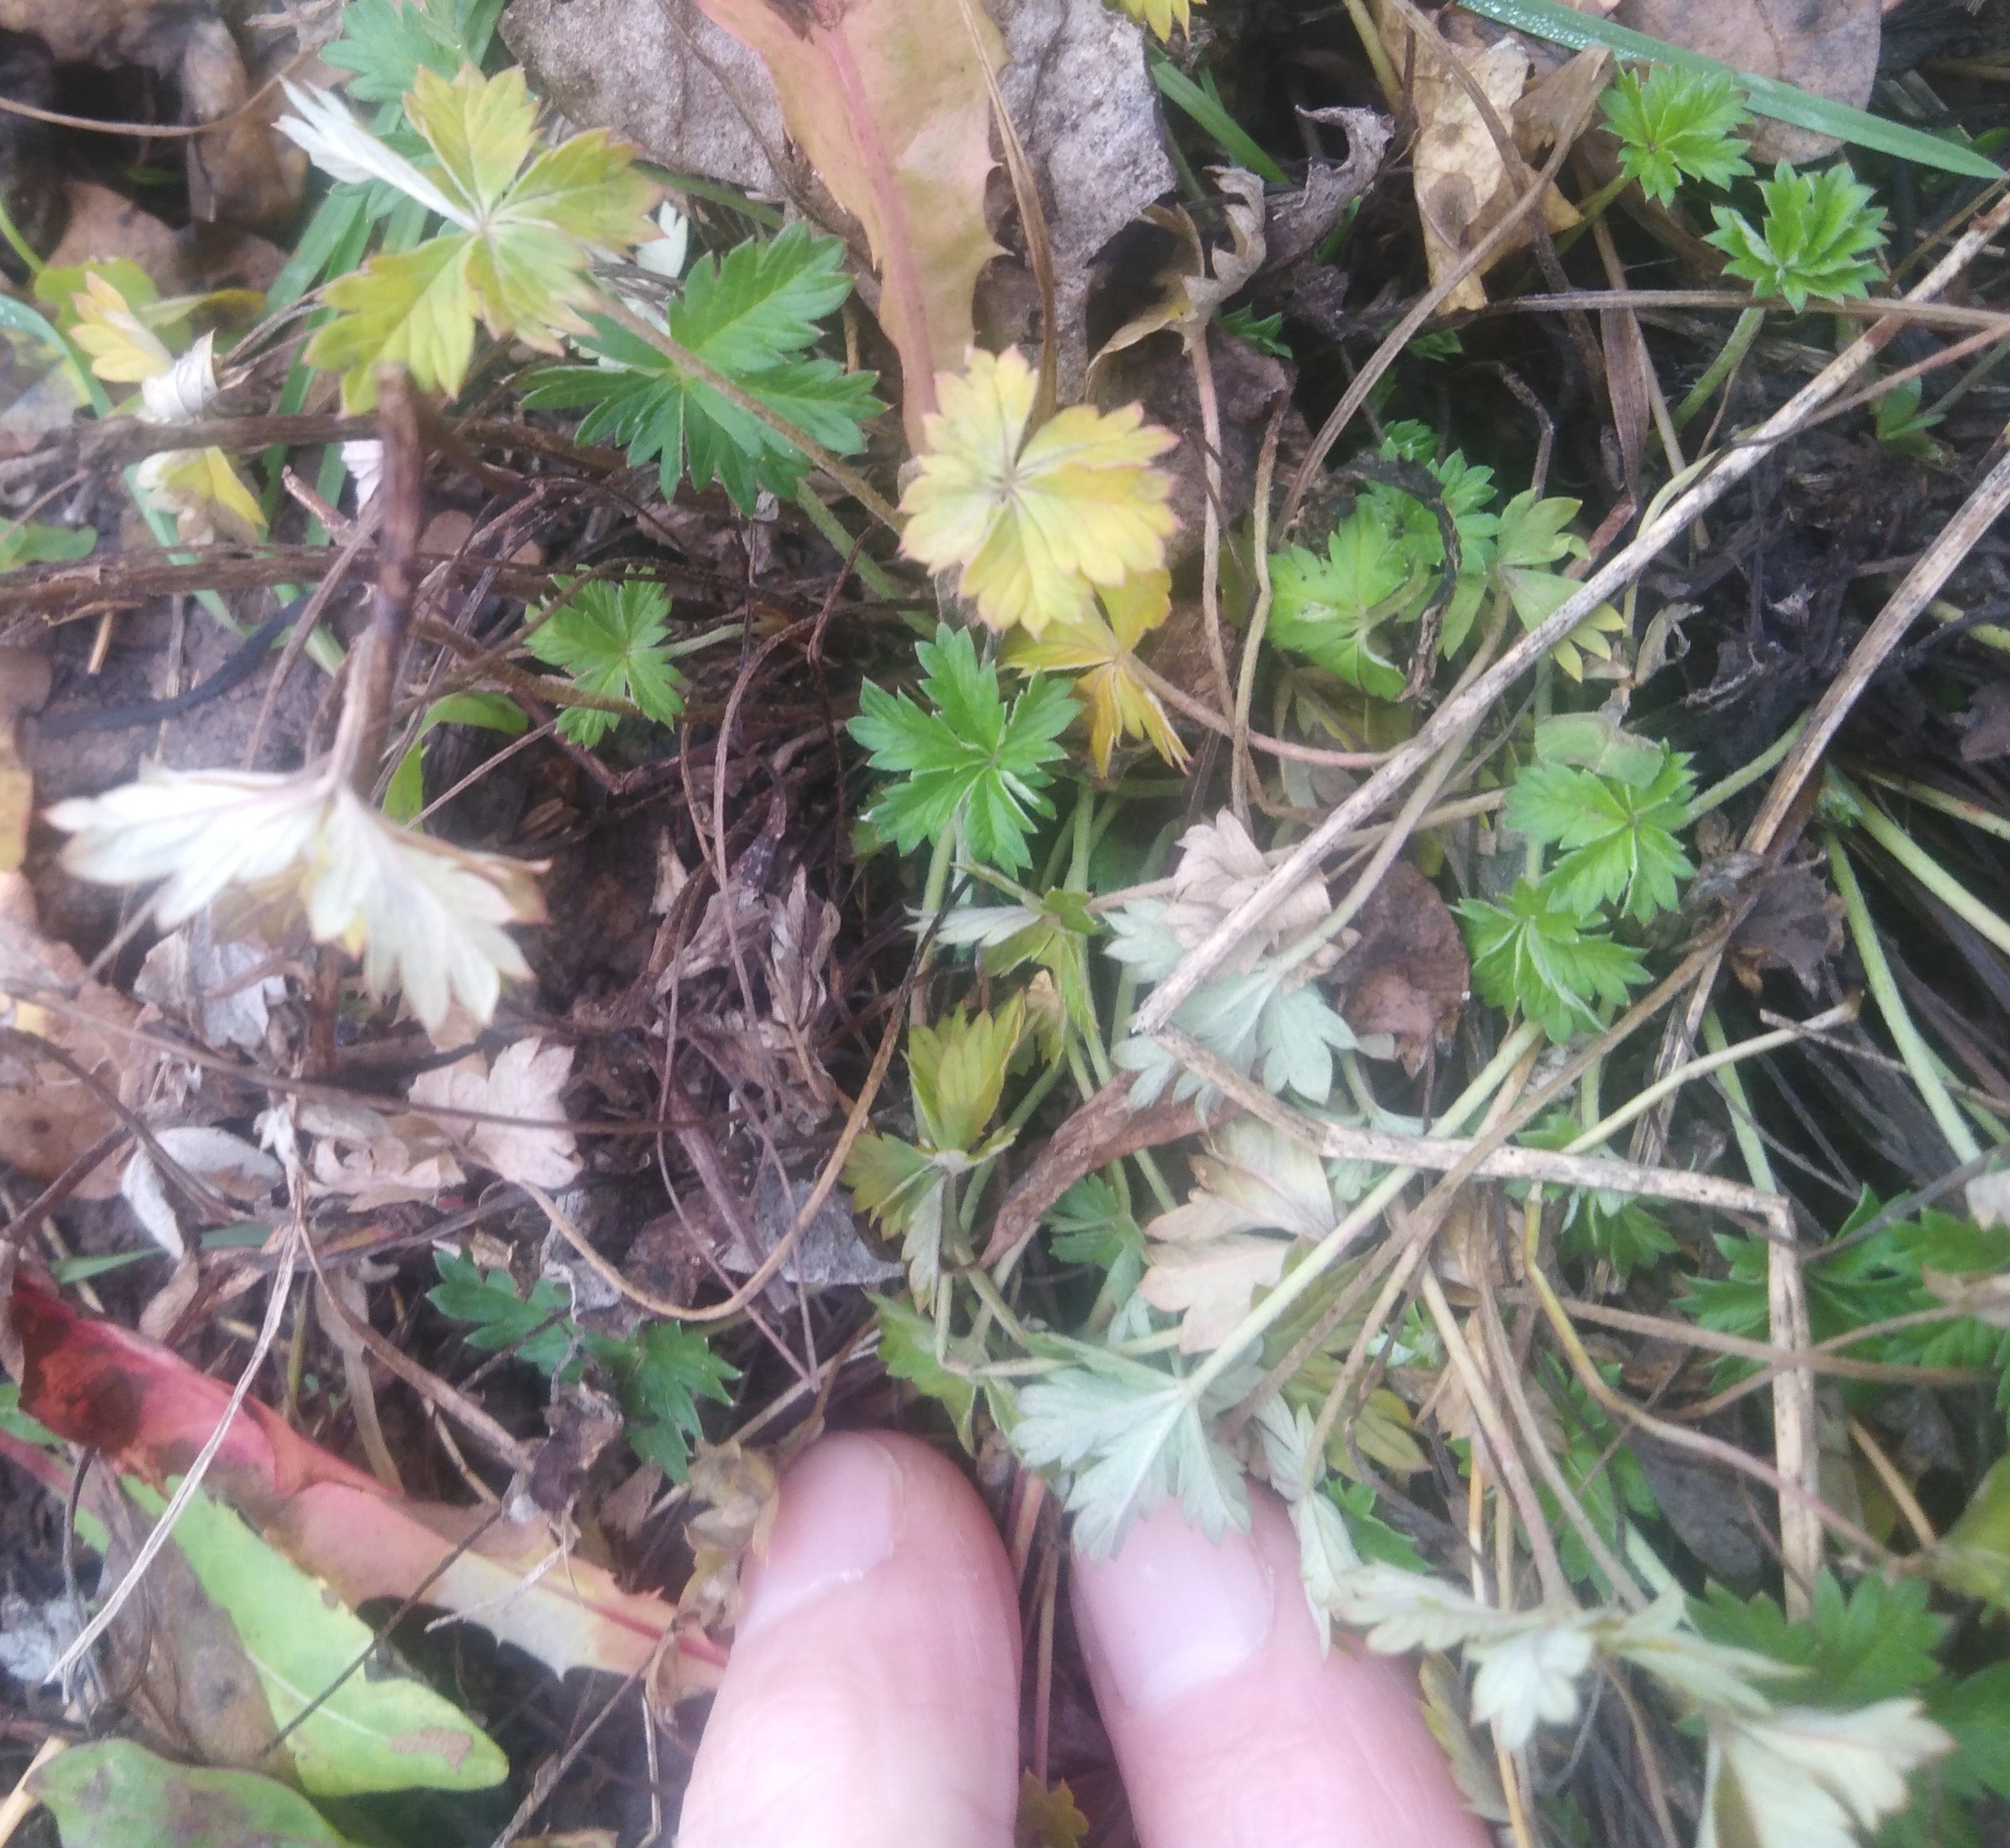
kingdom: Plantae
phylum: Tracheophyta
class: Magnoliopsida
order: Rosales
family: Rosaceae
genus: Potentilla
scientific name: Potentilla argentea
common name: Hoary cinquefoil
